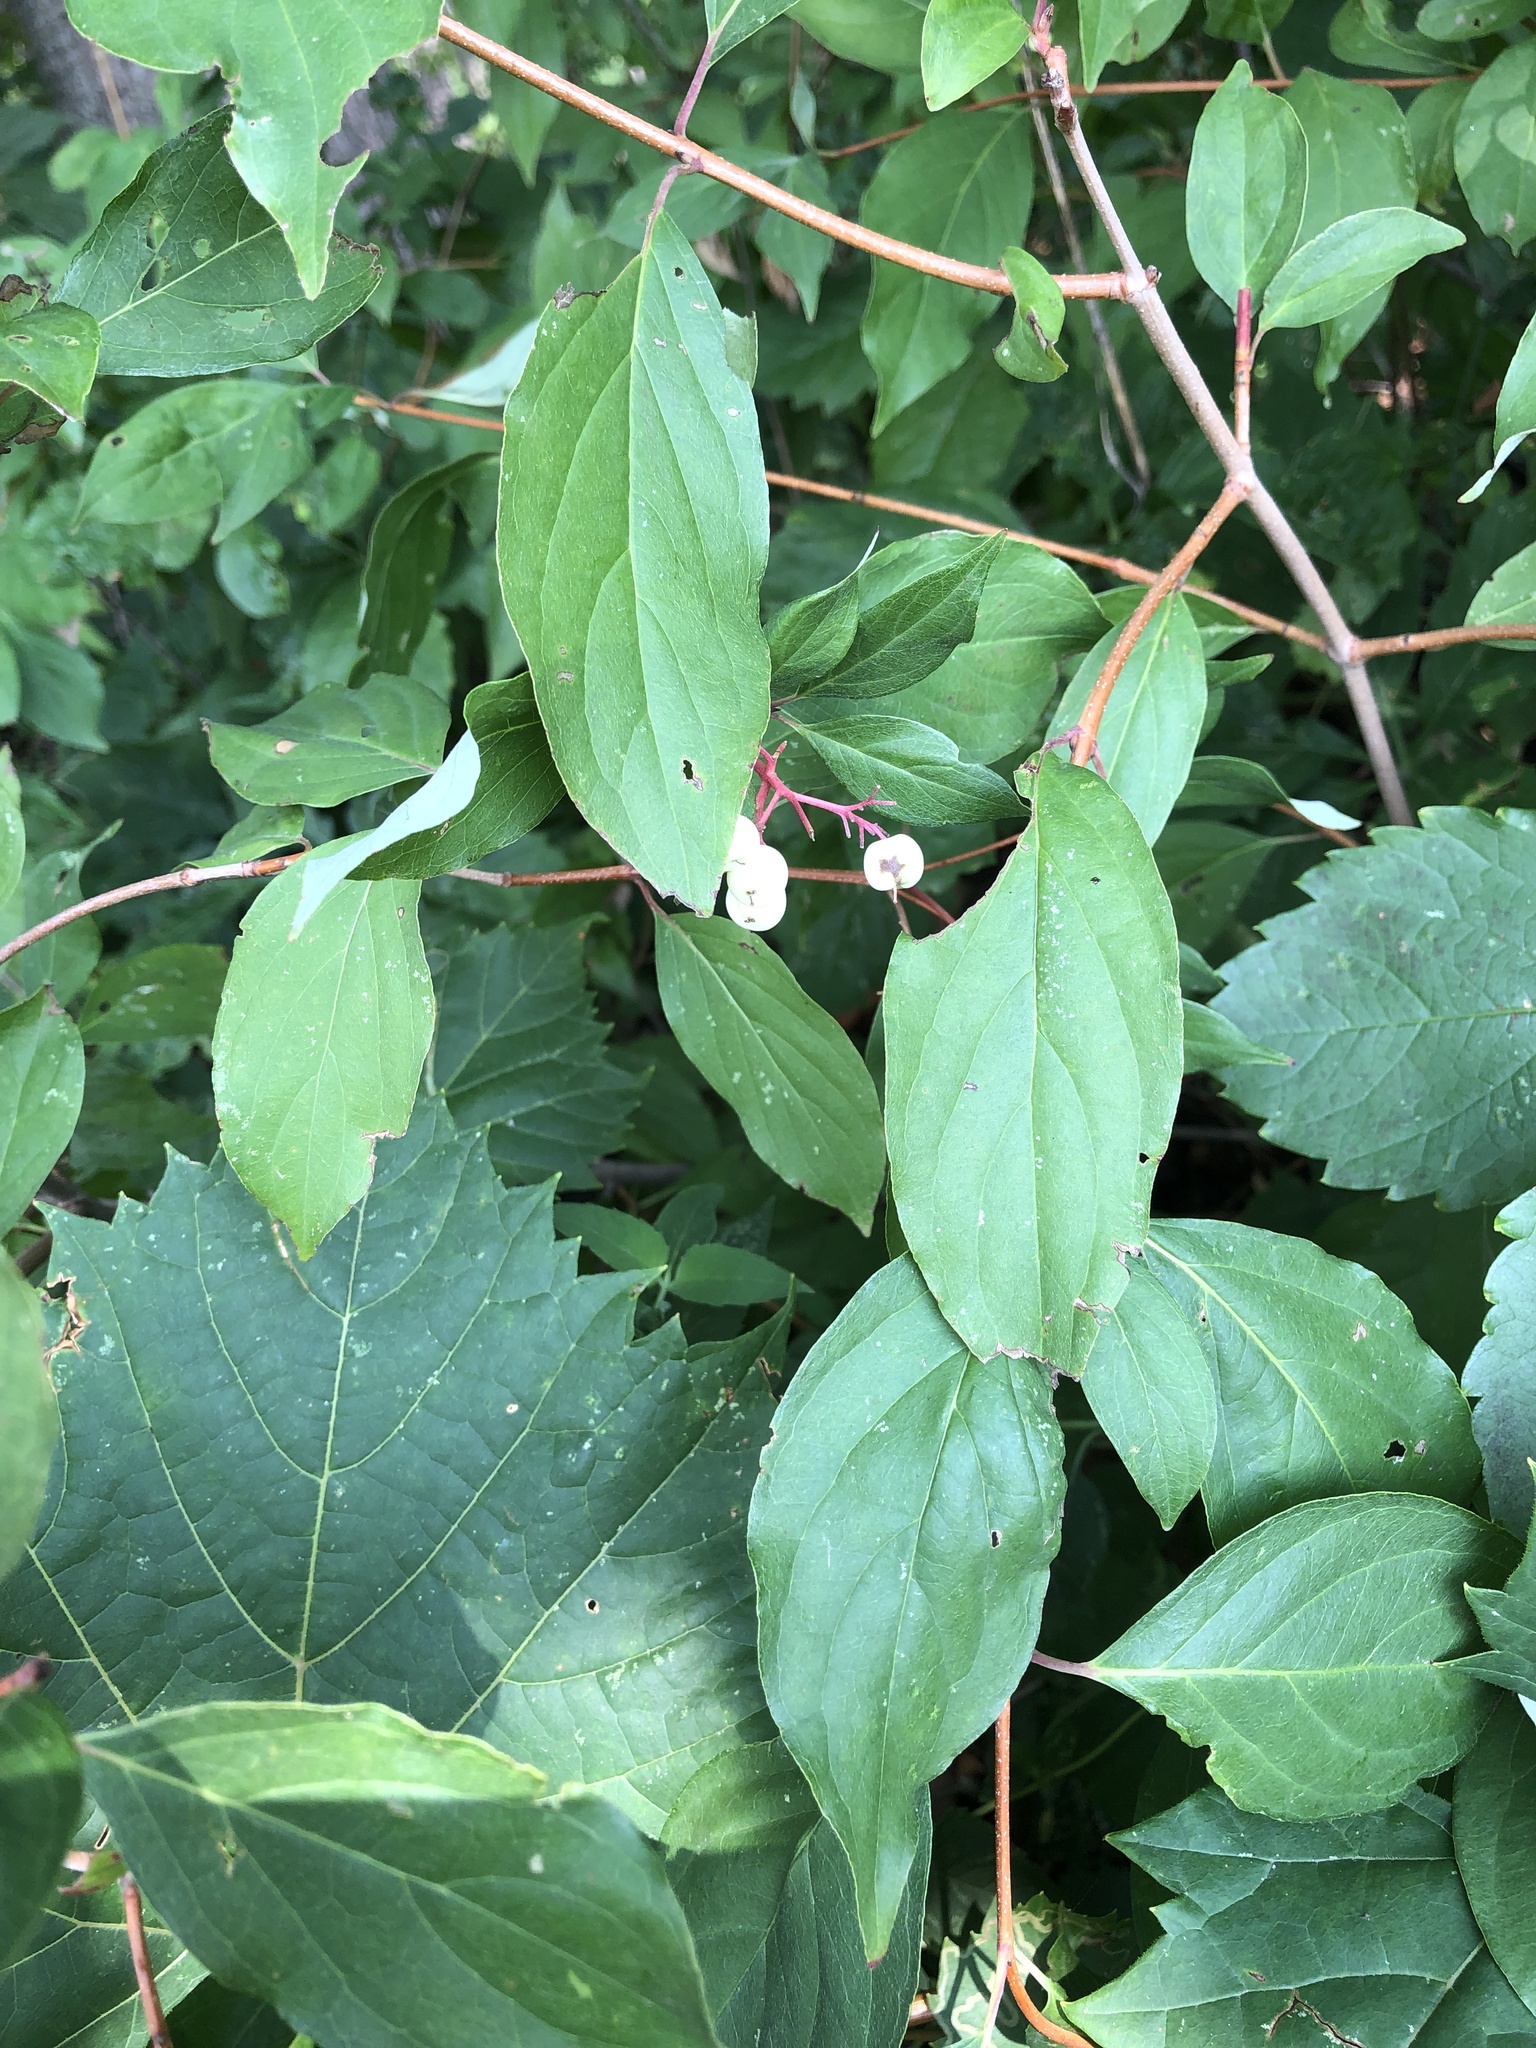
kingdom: Plantae
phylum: Tracheophyta
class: Magnoliopsida
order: Cornales
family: Cornaceae
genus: Cornus
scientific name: Cornus racemosa
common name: Panicled dogwood
